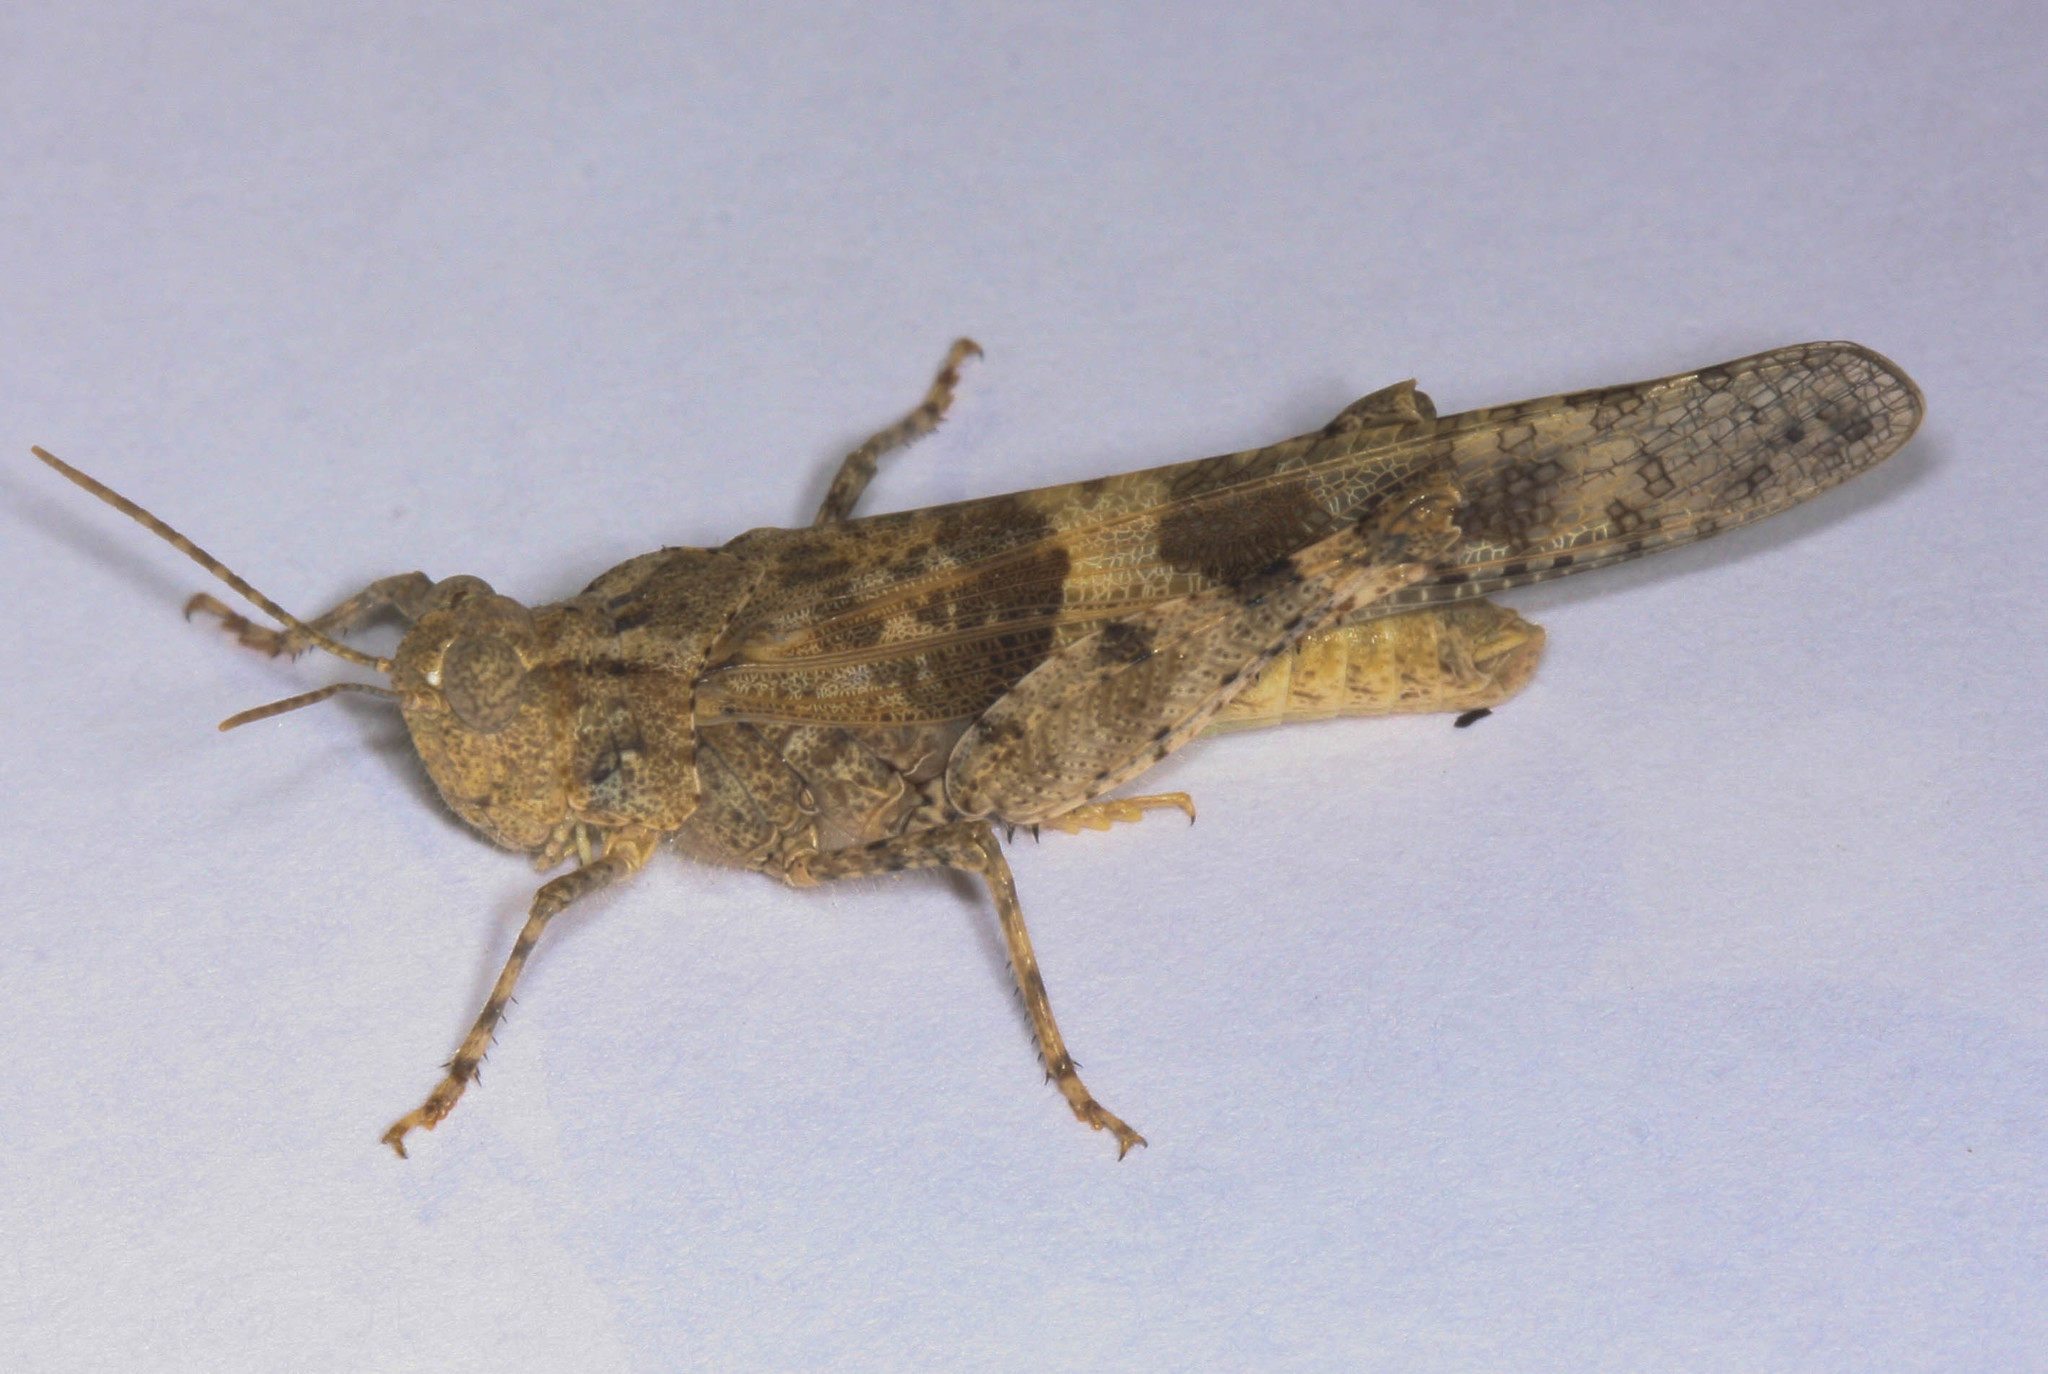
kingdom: Animalia
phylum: Arthropoda
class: Insecta
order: Orthoptera
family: Acrididae
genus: Trimerotropis
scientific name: Trimerotropis pallidipennis
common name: Pallid-winged grasshopper
